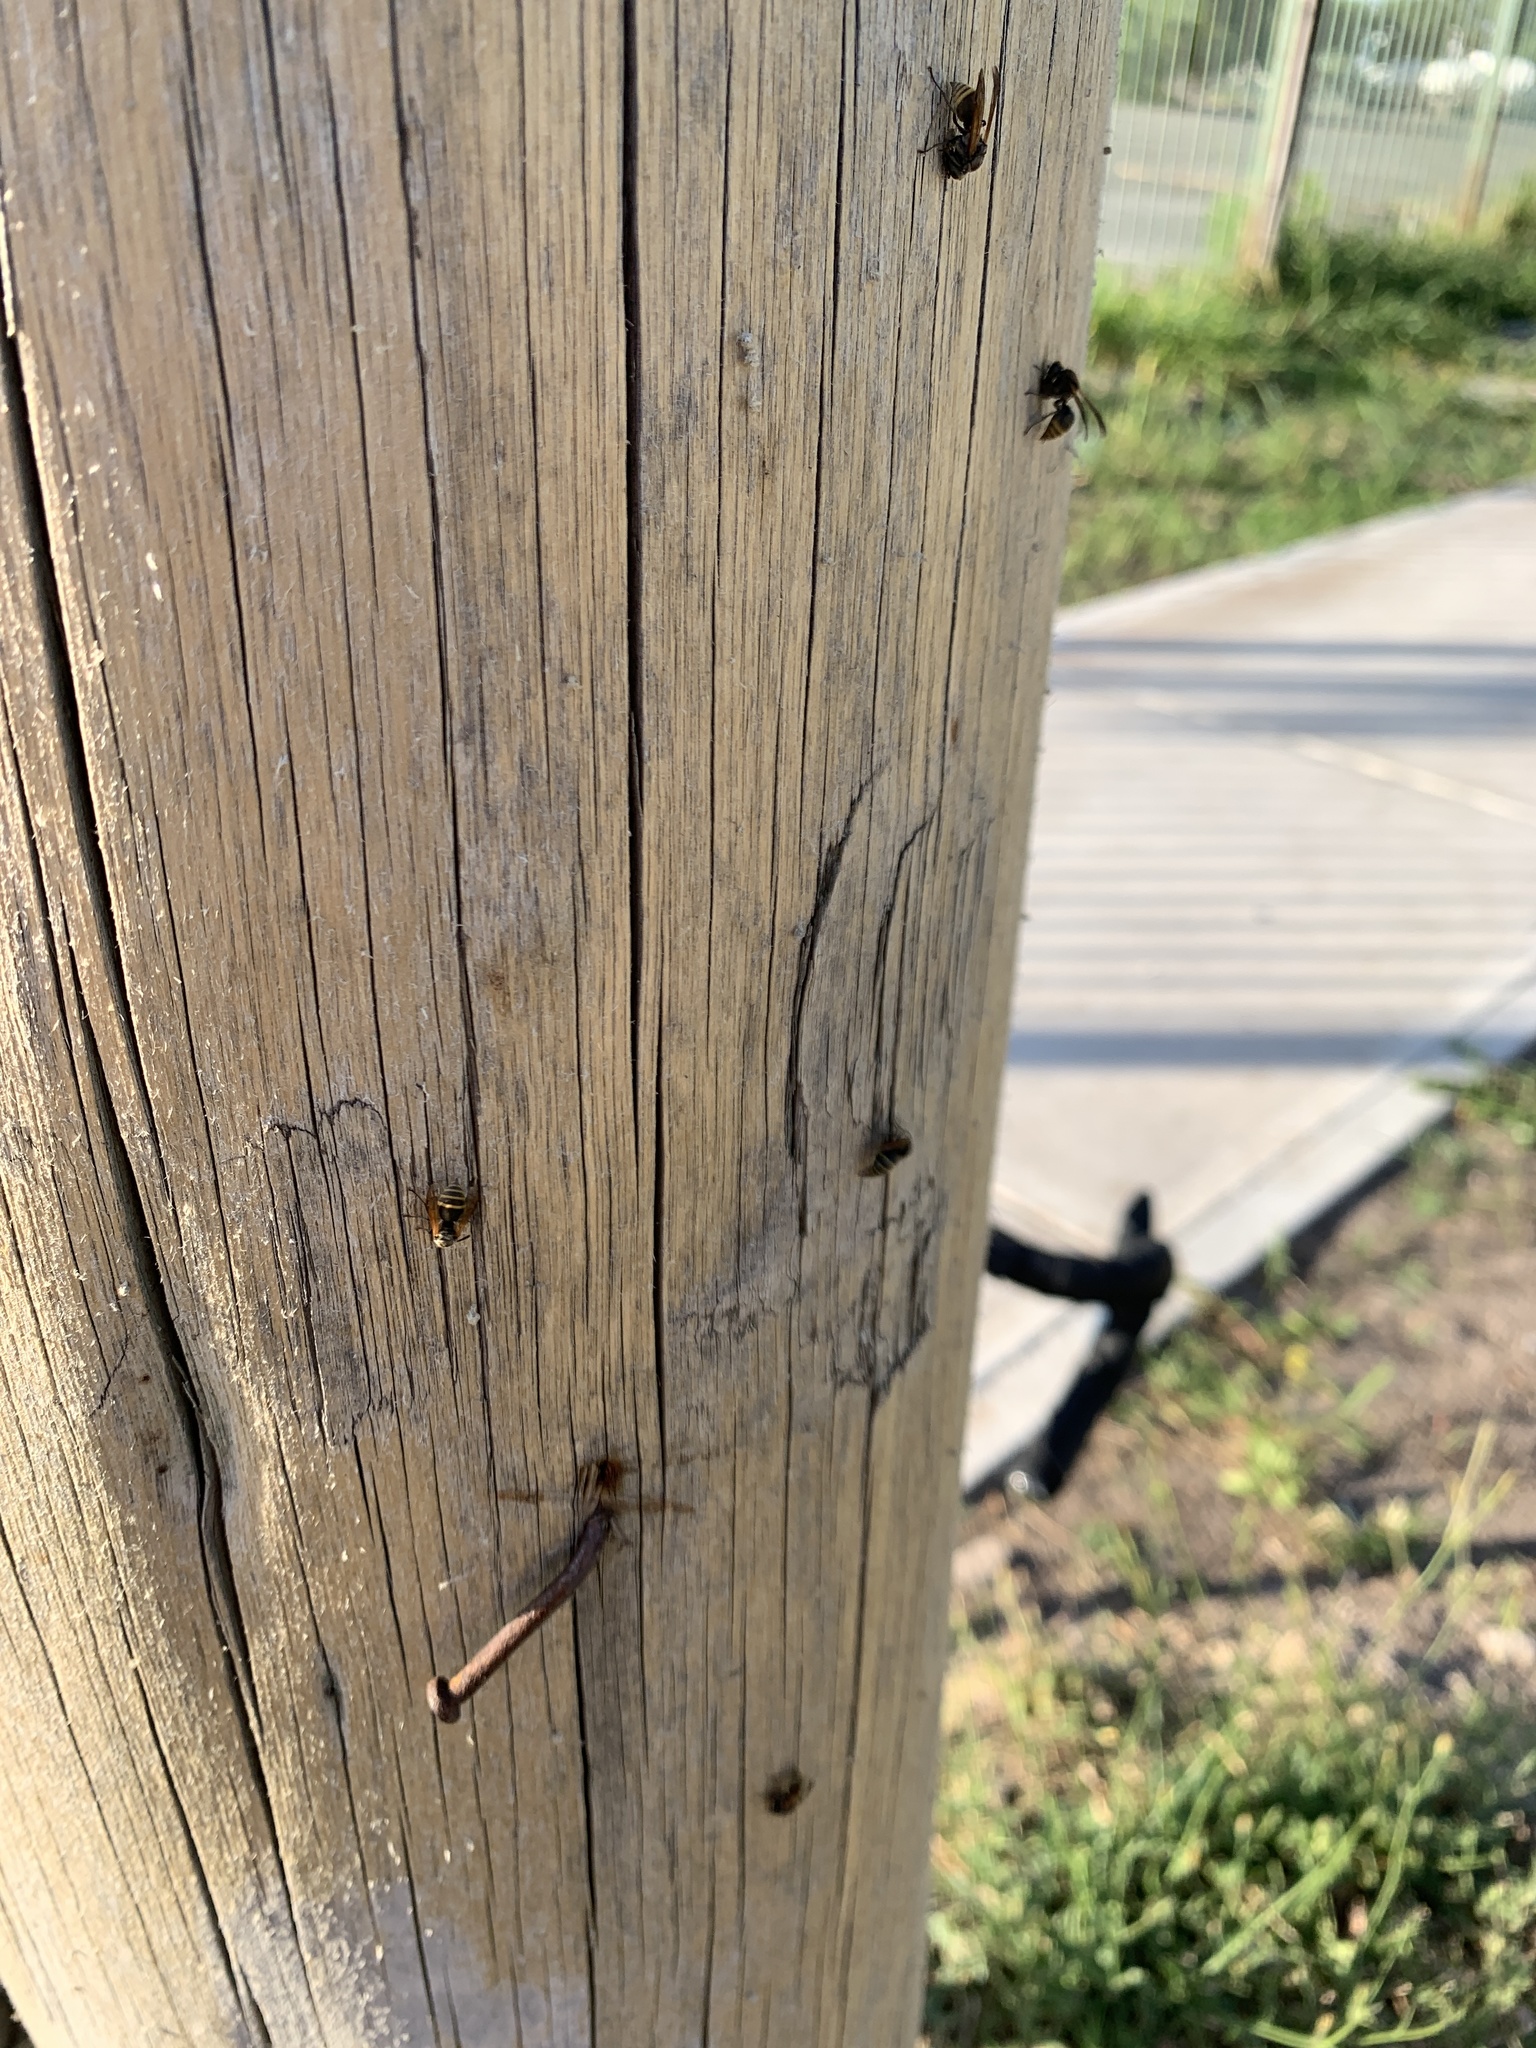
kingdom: Animalia
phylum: Arthropoda
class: Insecta
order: Hymenoptera
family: Vespidae
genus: Brachygastra
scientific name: Brachygastra lecheguana
